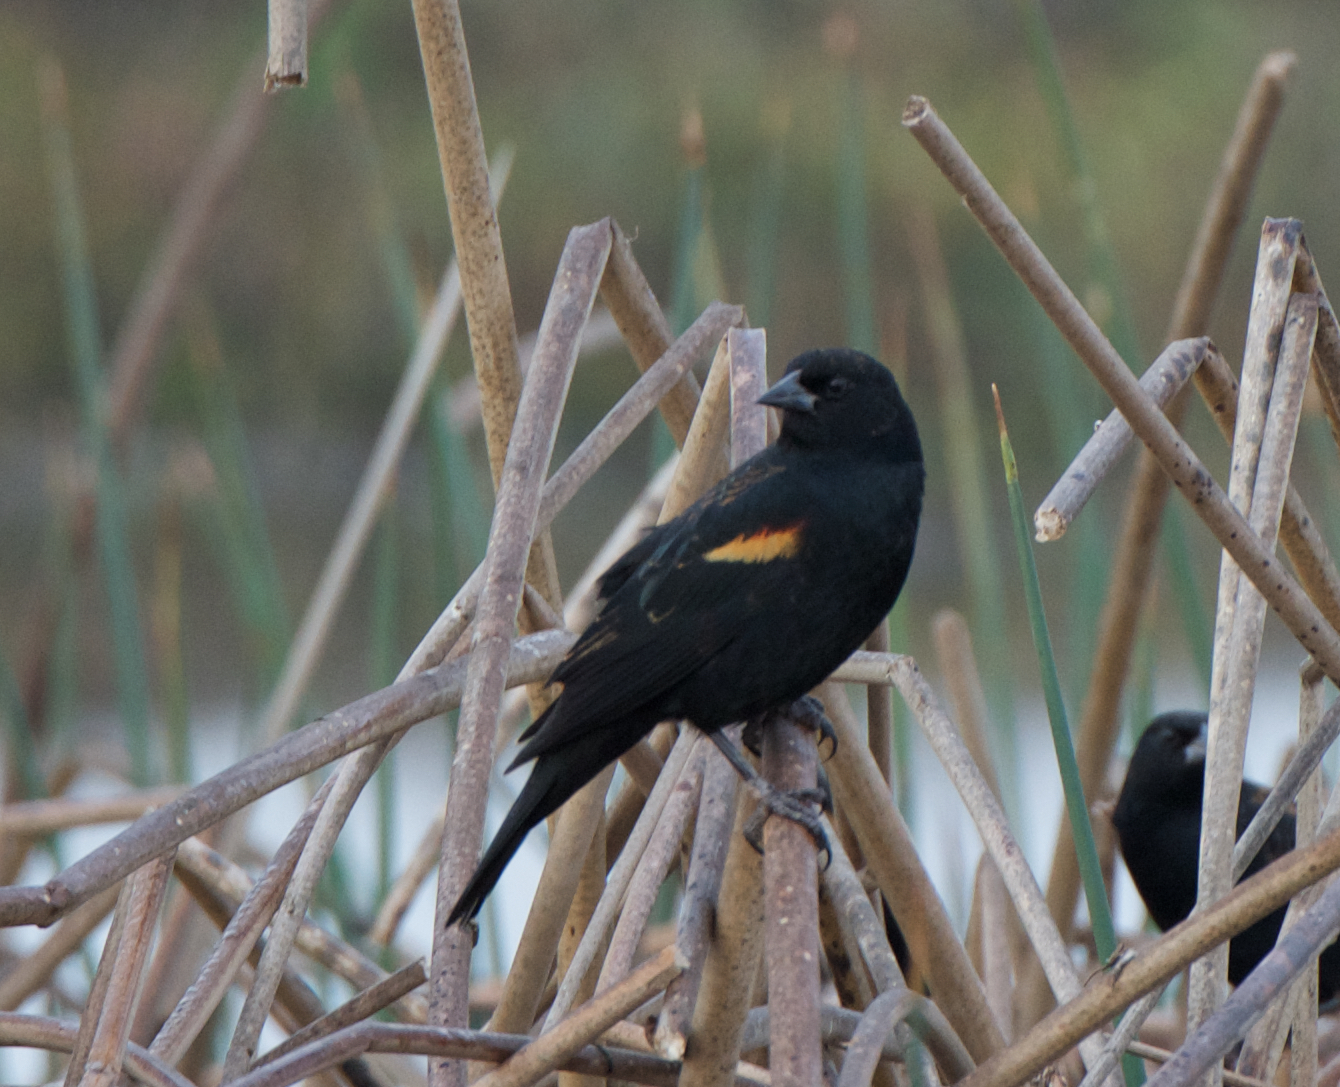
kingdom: Animalia
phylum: Chordata
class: Aves
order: Passeriformes
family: Icteridae
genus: Agelaius
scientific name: Agelaius phoeniceus
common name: Red-winged blackbird
